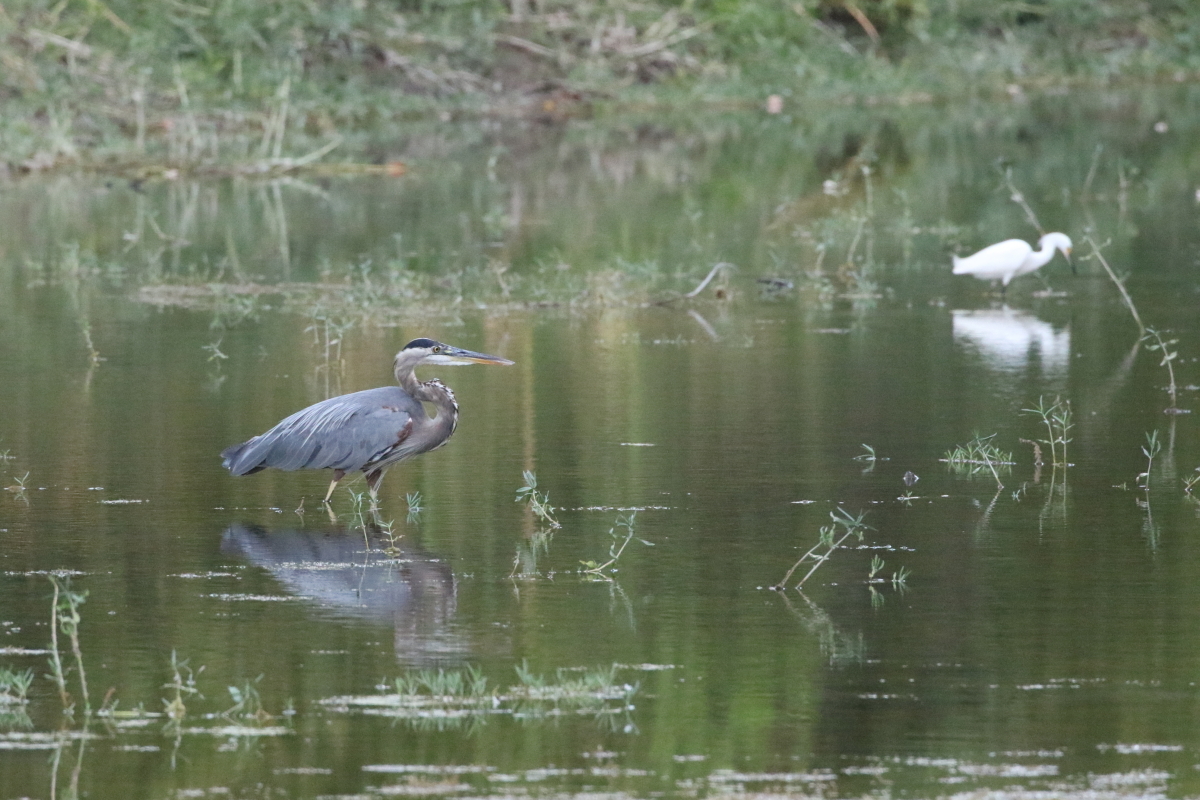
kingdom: Animalia
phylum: Chordata
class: Aves
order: Pelecaniformes
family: Ardeidae
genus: Egretta
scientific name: Egretta thula
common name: Snowy egret
